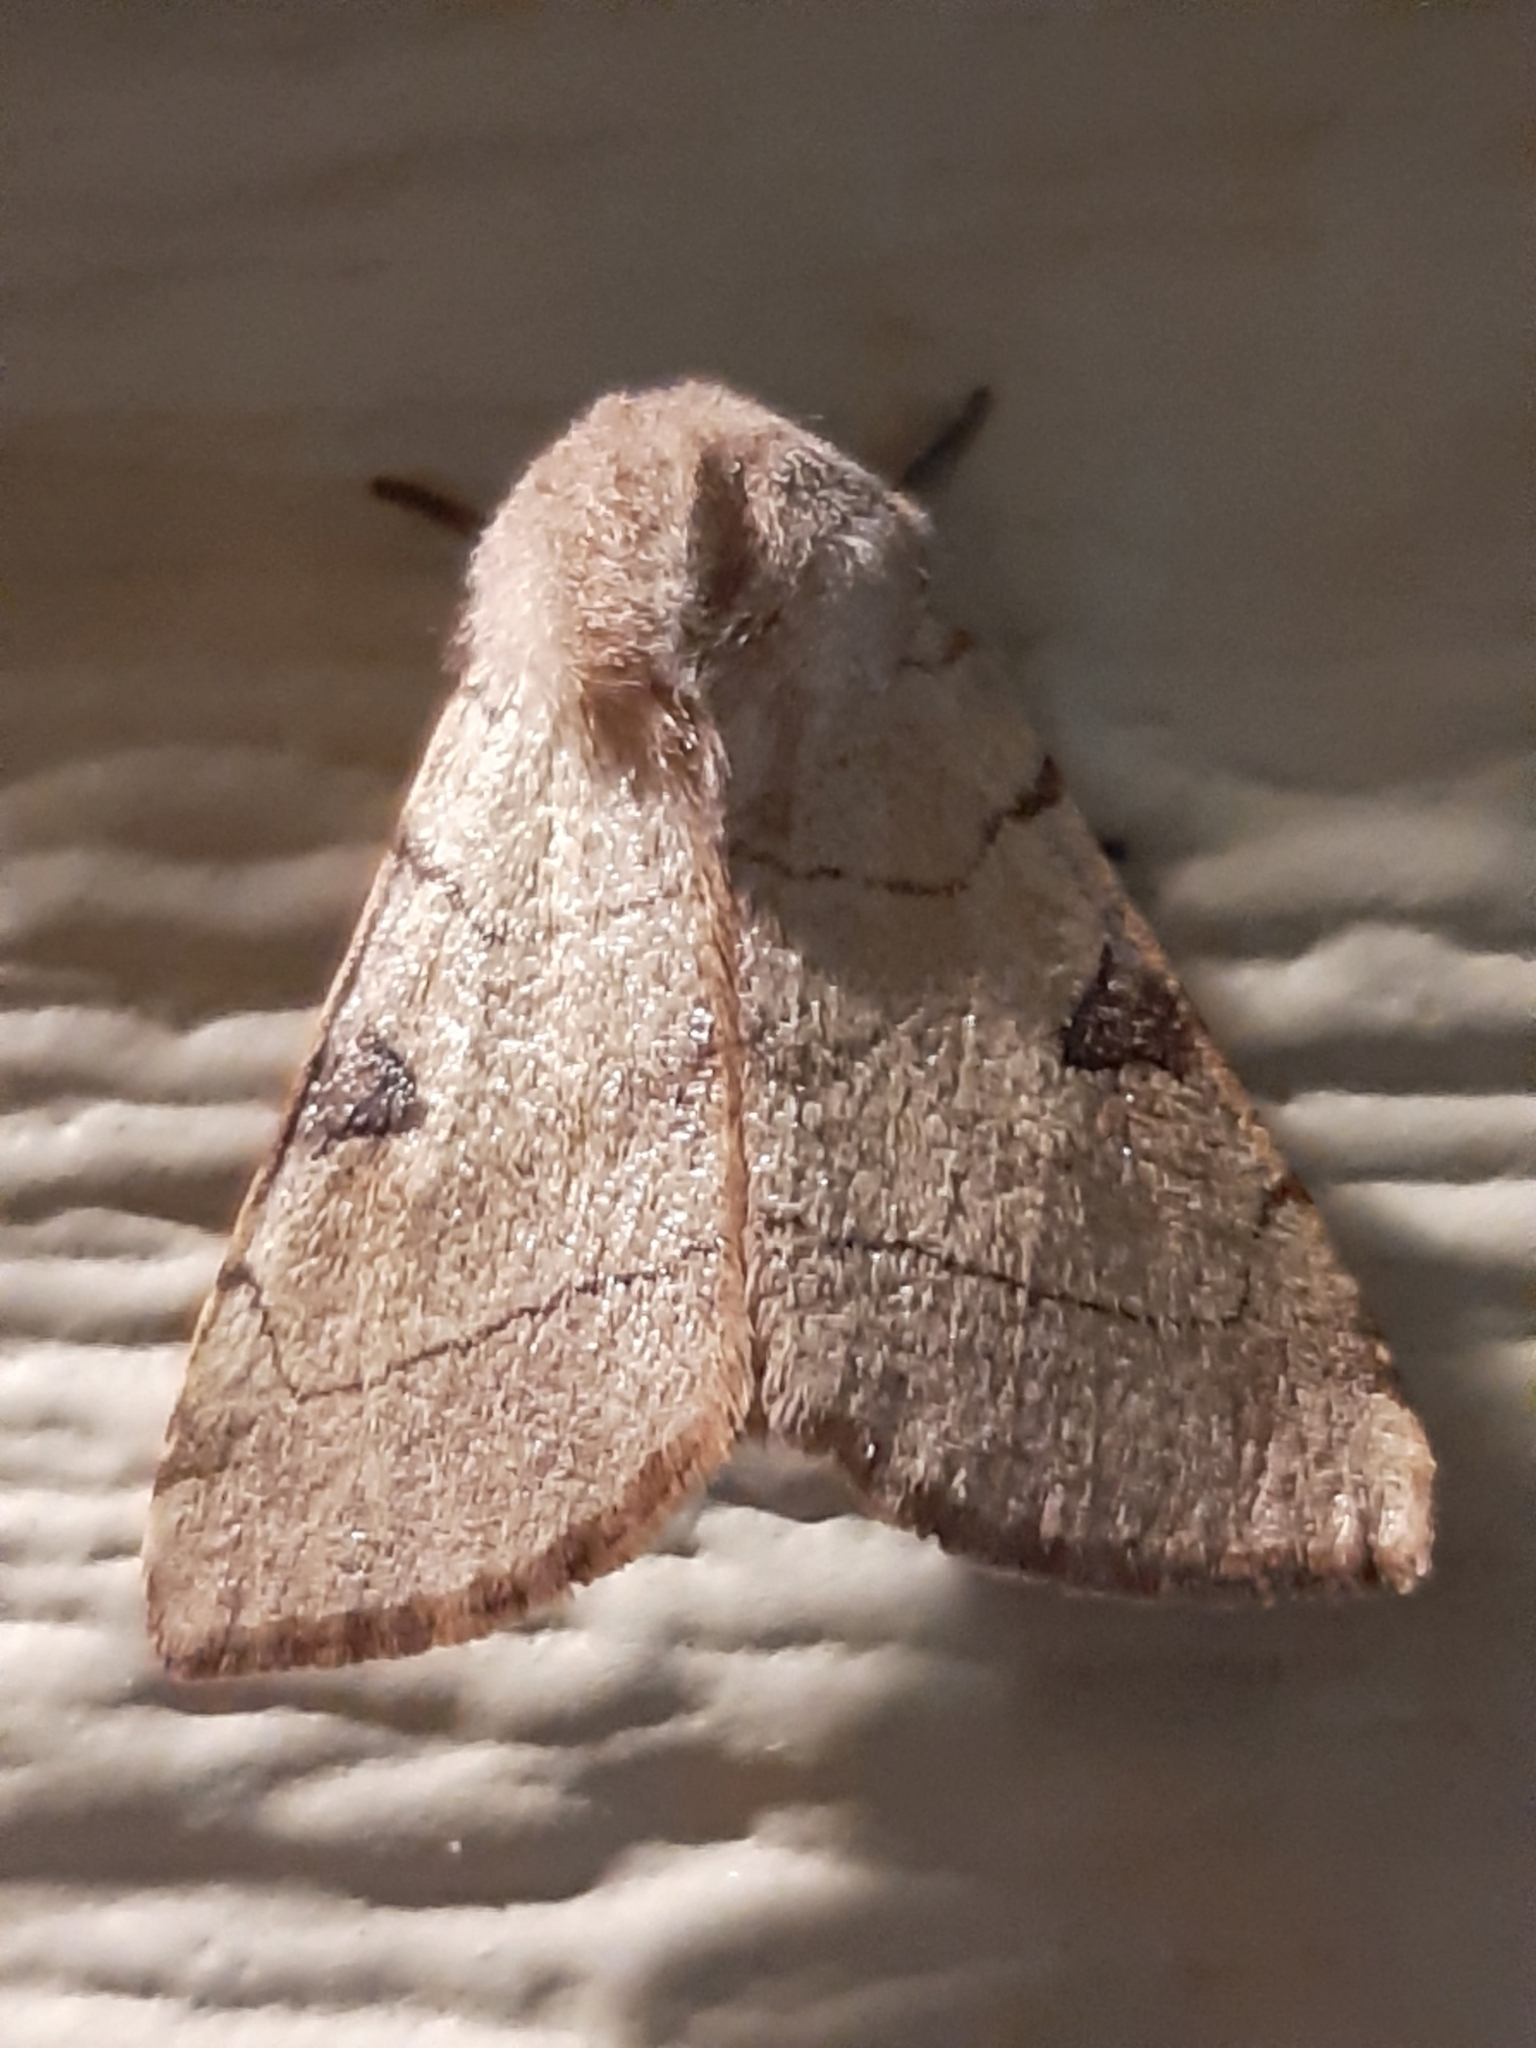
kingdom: Animalia
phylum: Arthropoda
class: Insecta
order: Lepidoptera
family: Noctuidae
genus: Choephora
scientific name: Choephora fungorum
